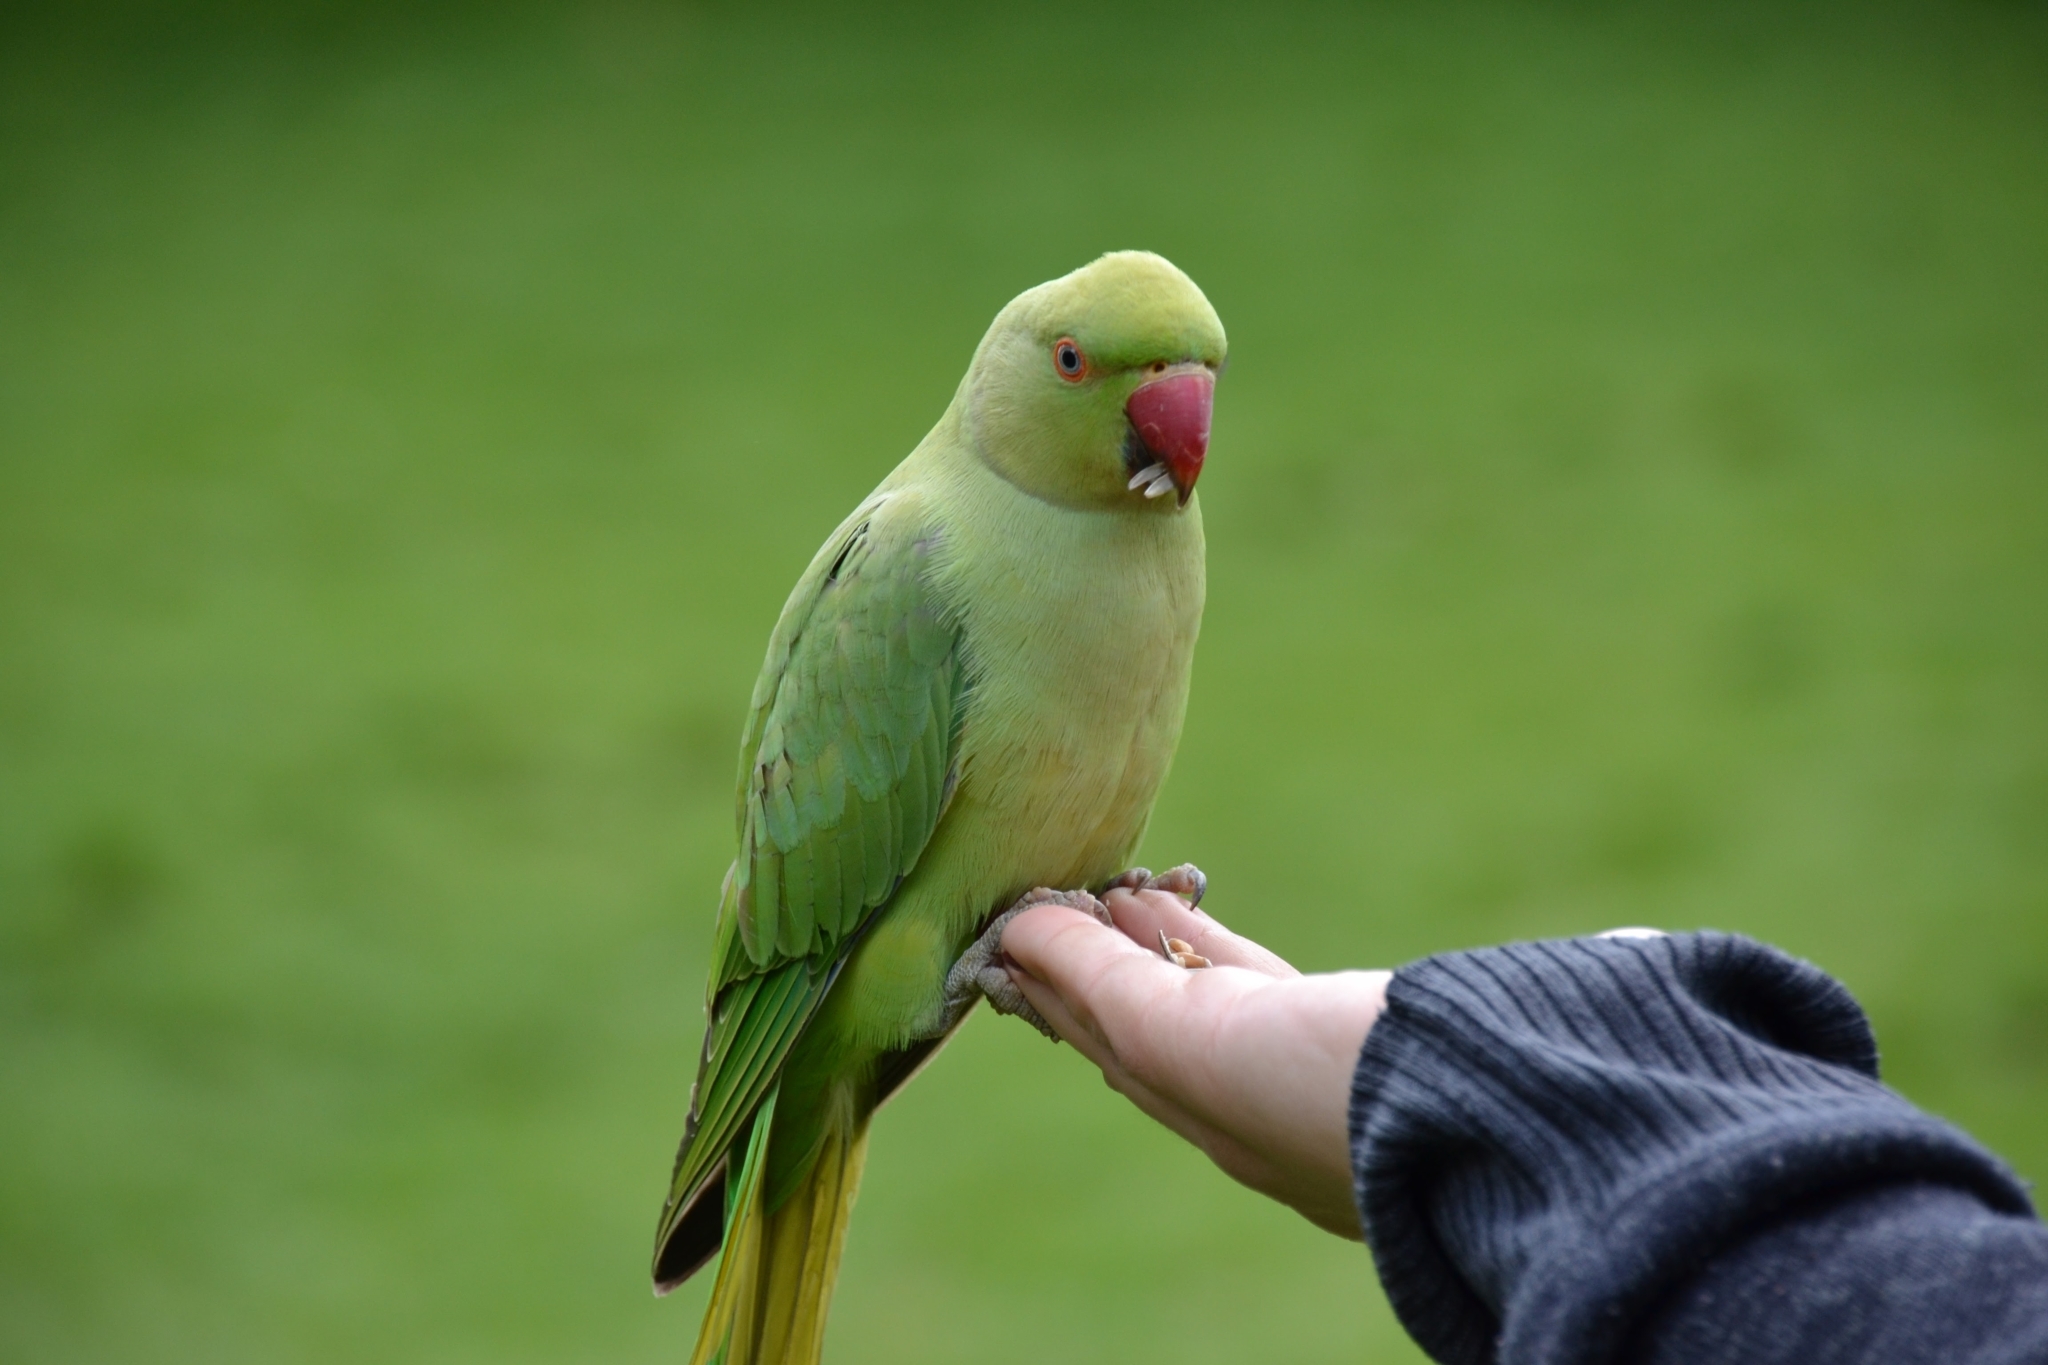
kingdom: Animalia
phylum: Chordata
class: Aves
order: Psittaciformes
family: Psittacidae
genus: Psittacula
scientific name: Psittacula krameri
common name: Rose-ringed parakeet
